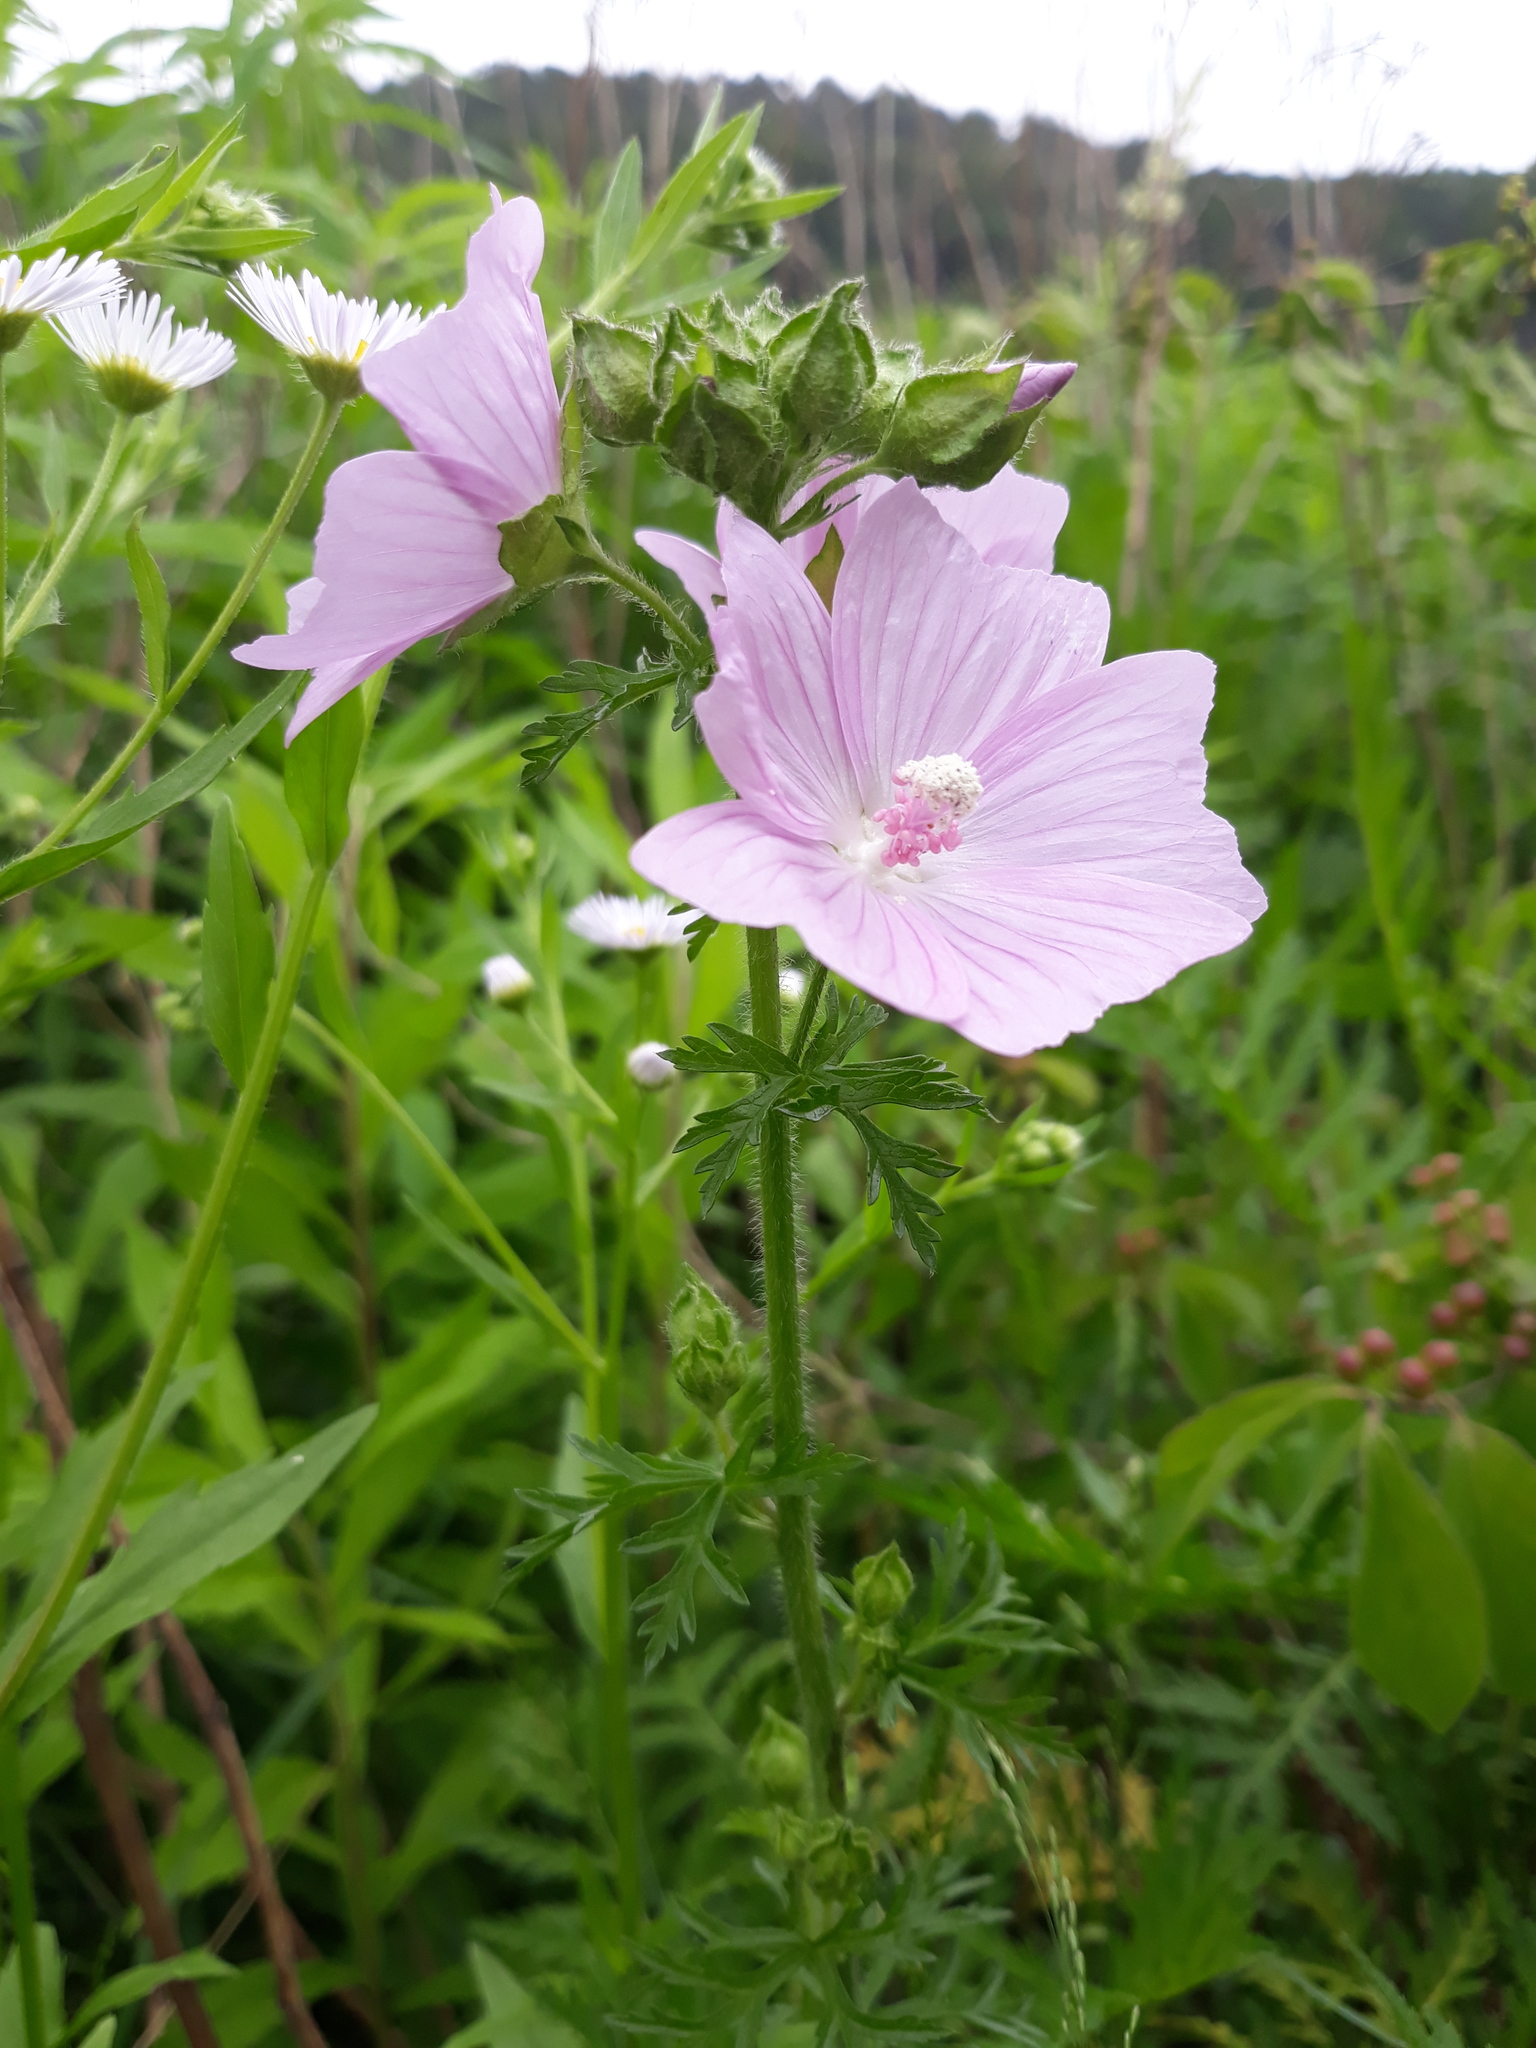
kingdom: Plantae
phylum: Tracheophyta
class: Magnoliopsida
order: Malvales
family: Malvaceae
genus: Malva
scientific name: Malva moschata
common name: Musk mallow
